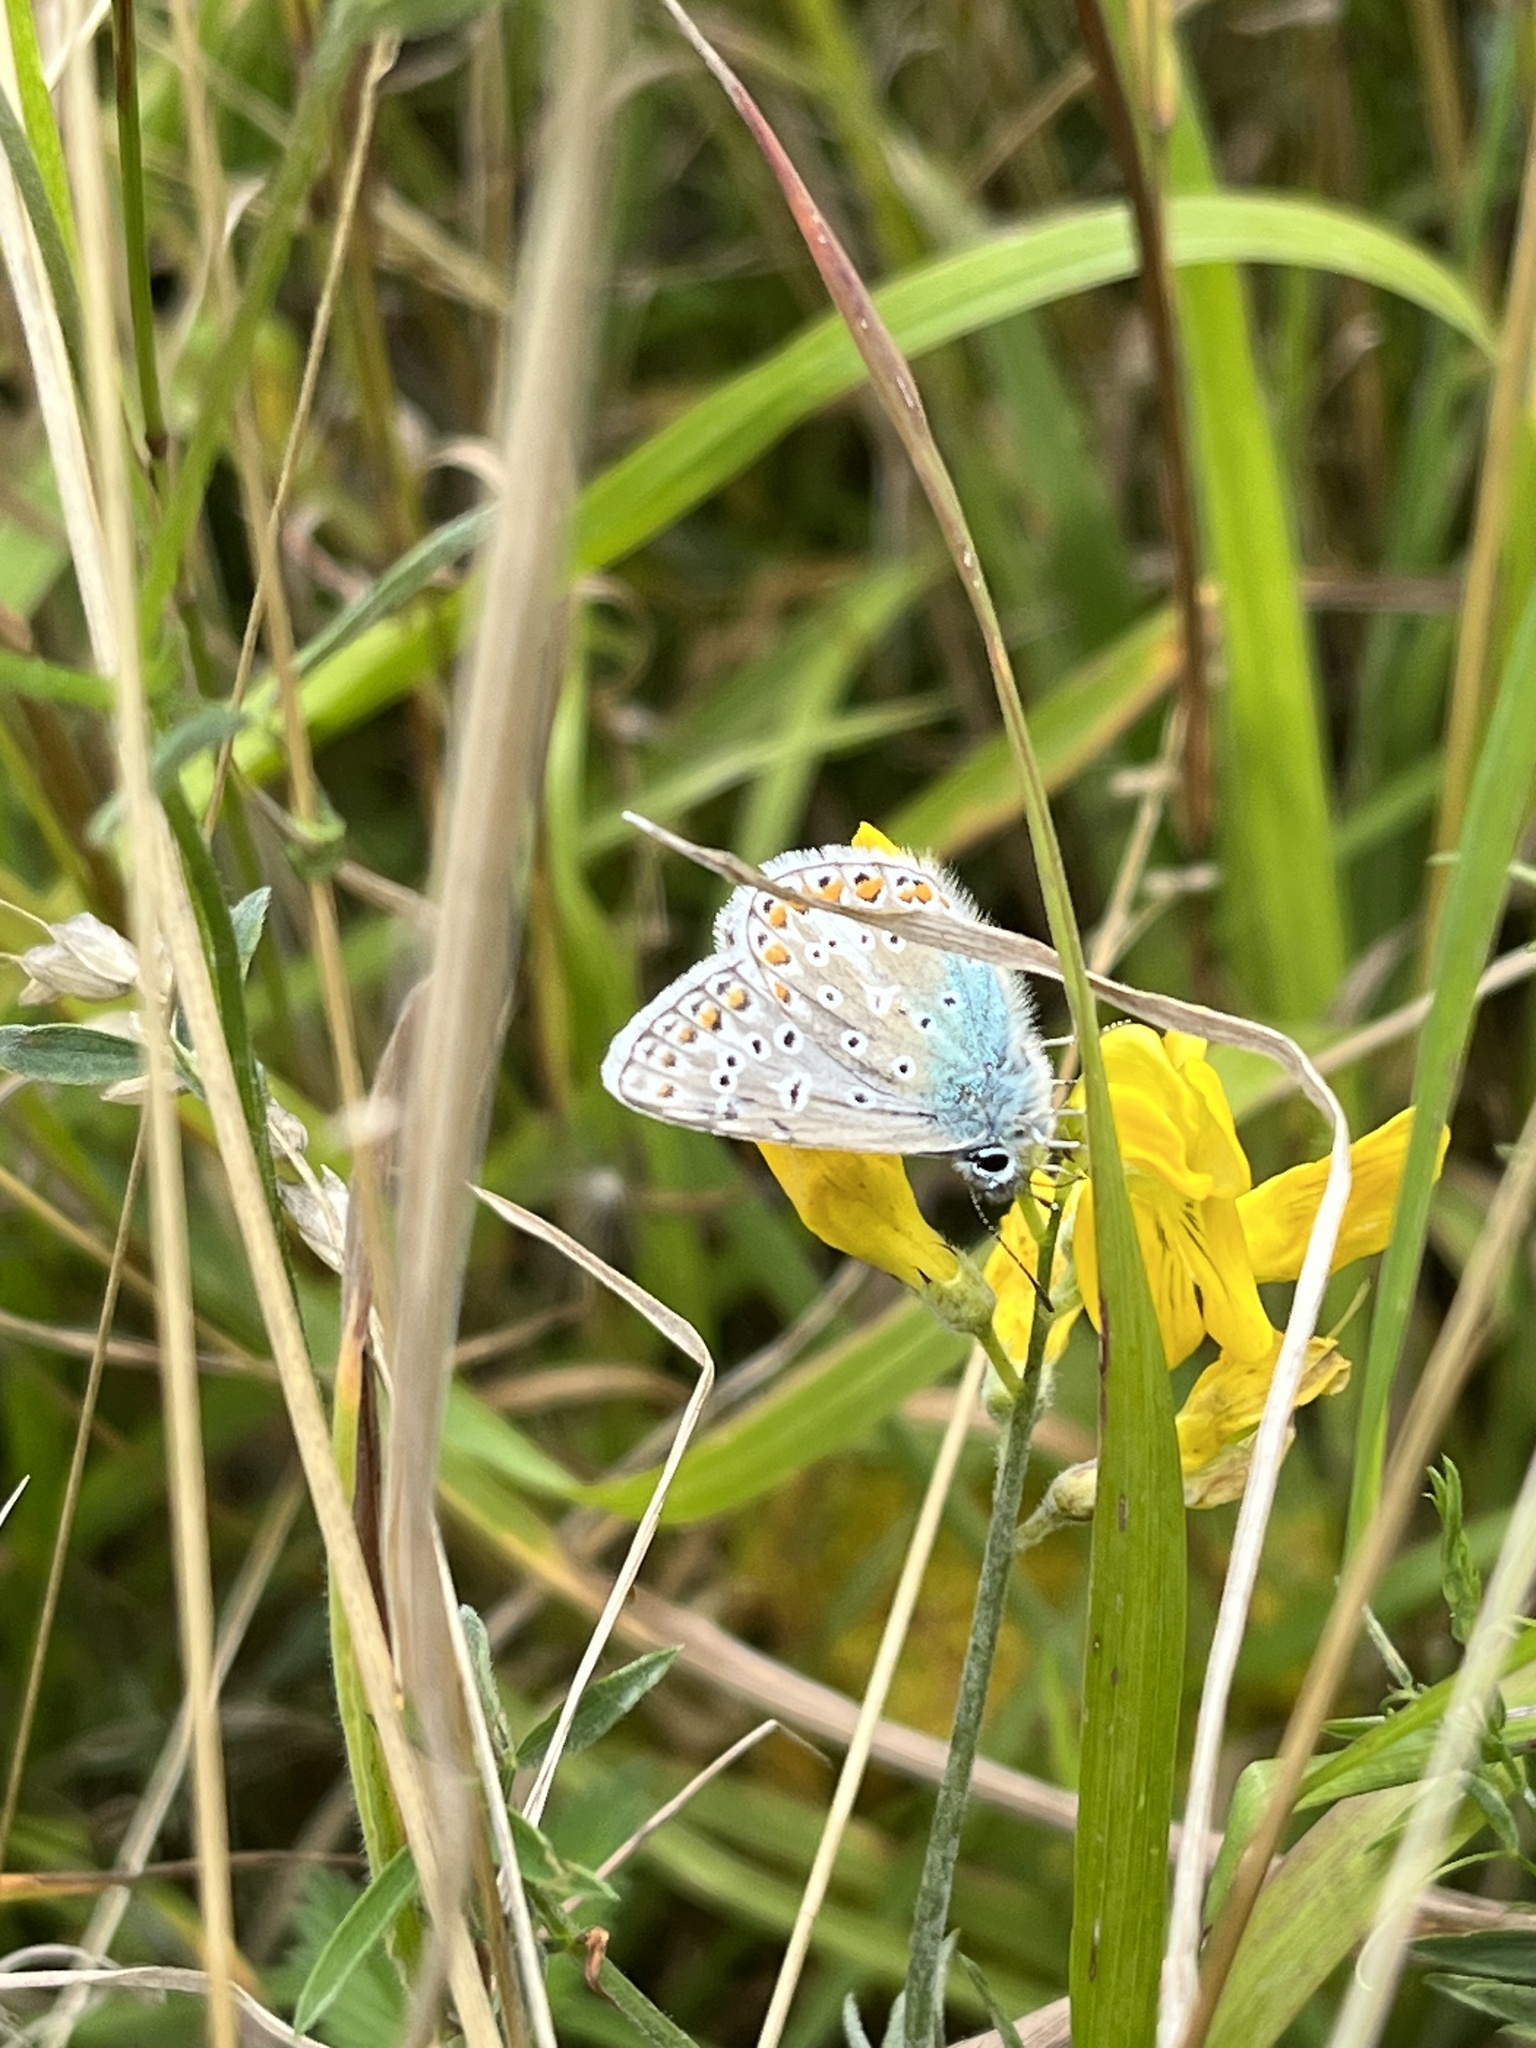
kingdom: Animalia
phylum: Arthropoda
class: Insecta
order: Lepidoptera
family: Lycaenidae
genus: Polyommatus
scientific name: Polyommatus icarus
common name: Common blue
